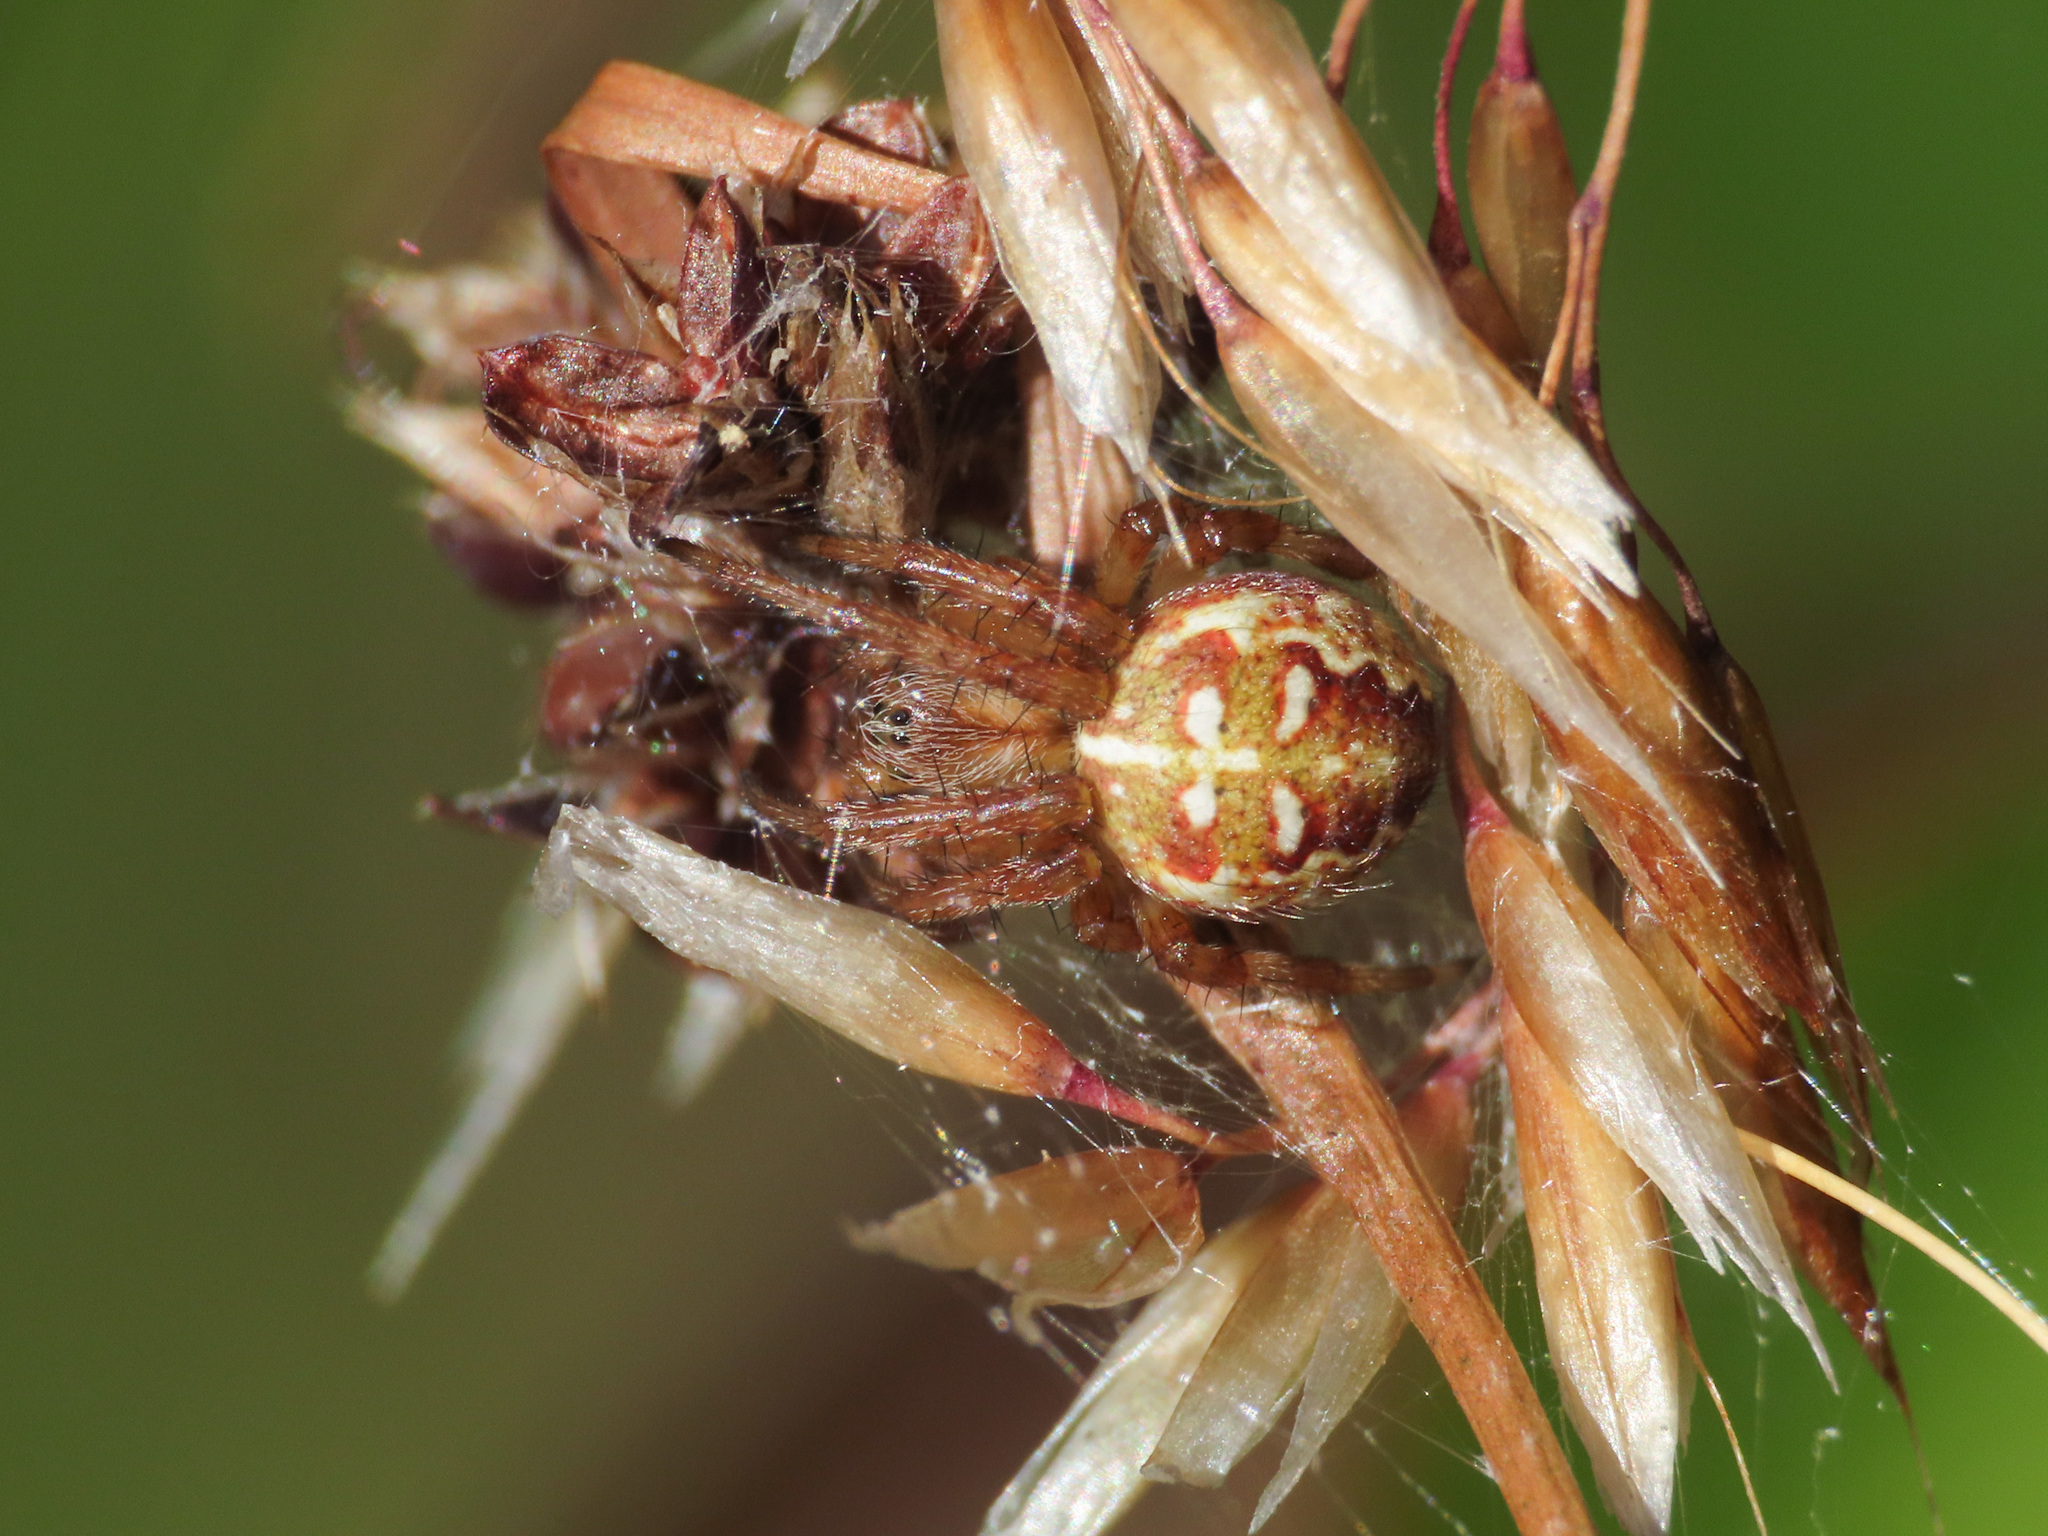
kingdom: Animalia
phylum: Arthropoda
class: Arachnida
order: Araneae
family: Araneidae
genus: Araneus
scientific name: Araneus quadratus
